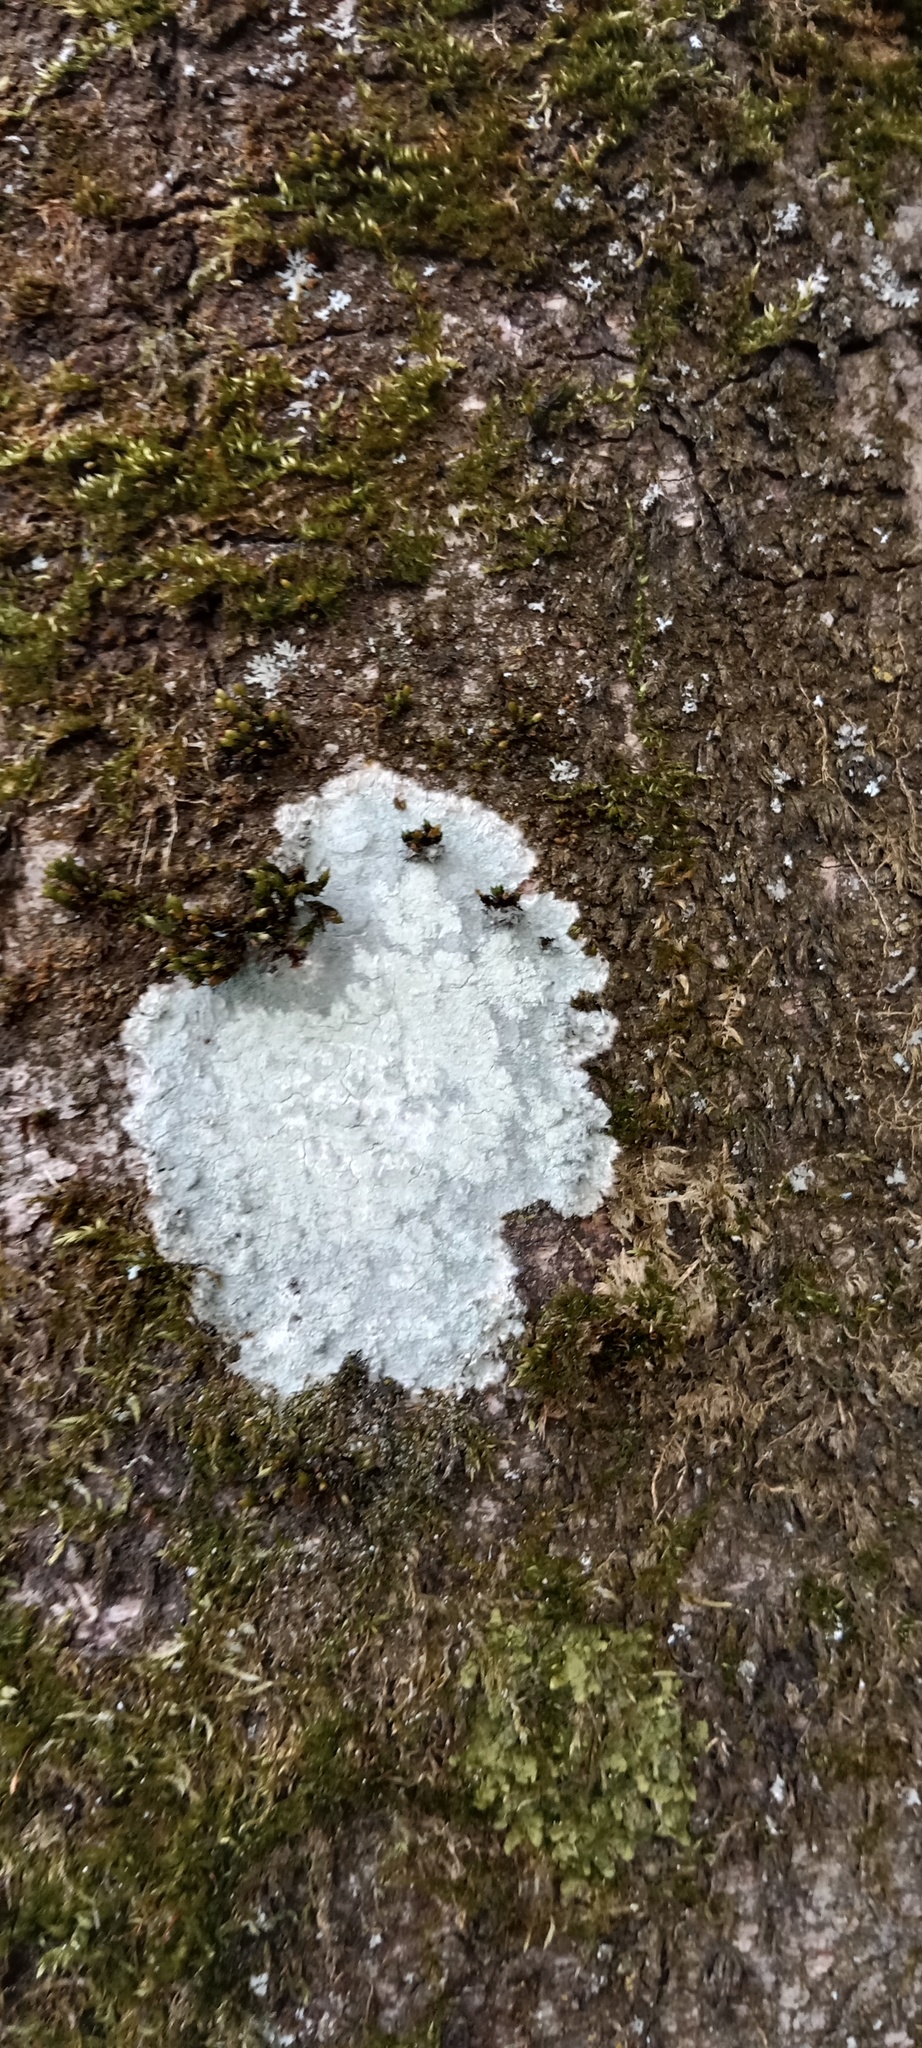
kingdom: Fungi
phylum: Ascomycota
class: Lecanoromycetes
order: Ostropales
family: Phlyctidaceae
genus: Phlyctis
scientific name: Phlyctis argena
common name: Whitewash lichen
